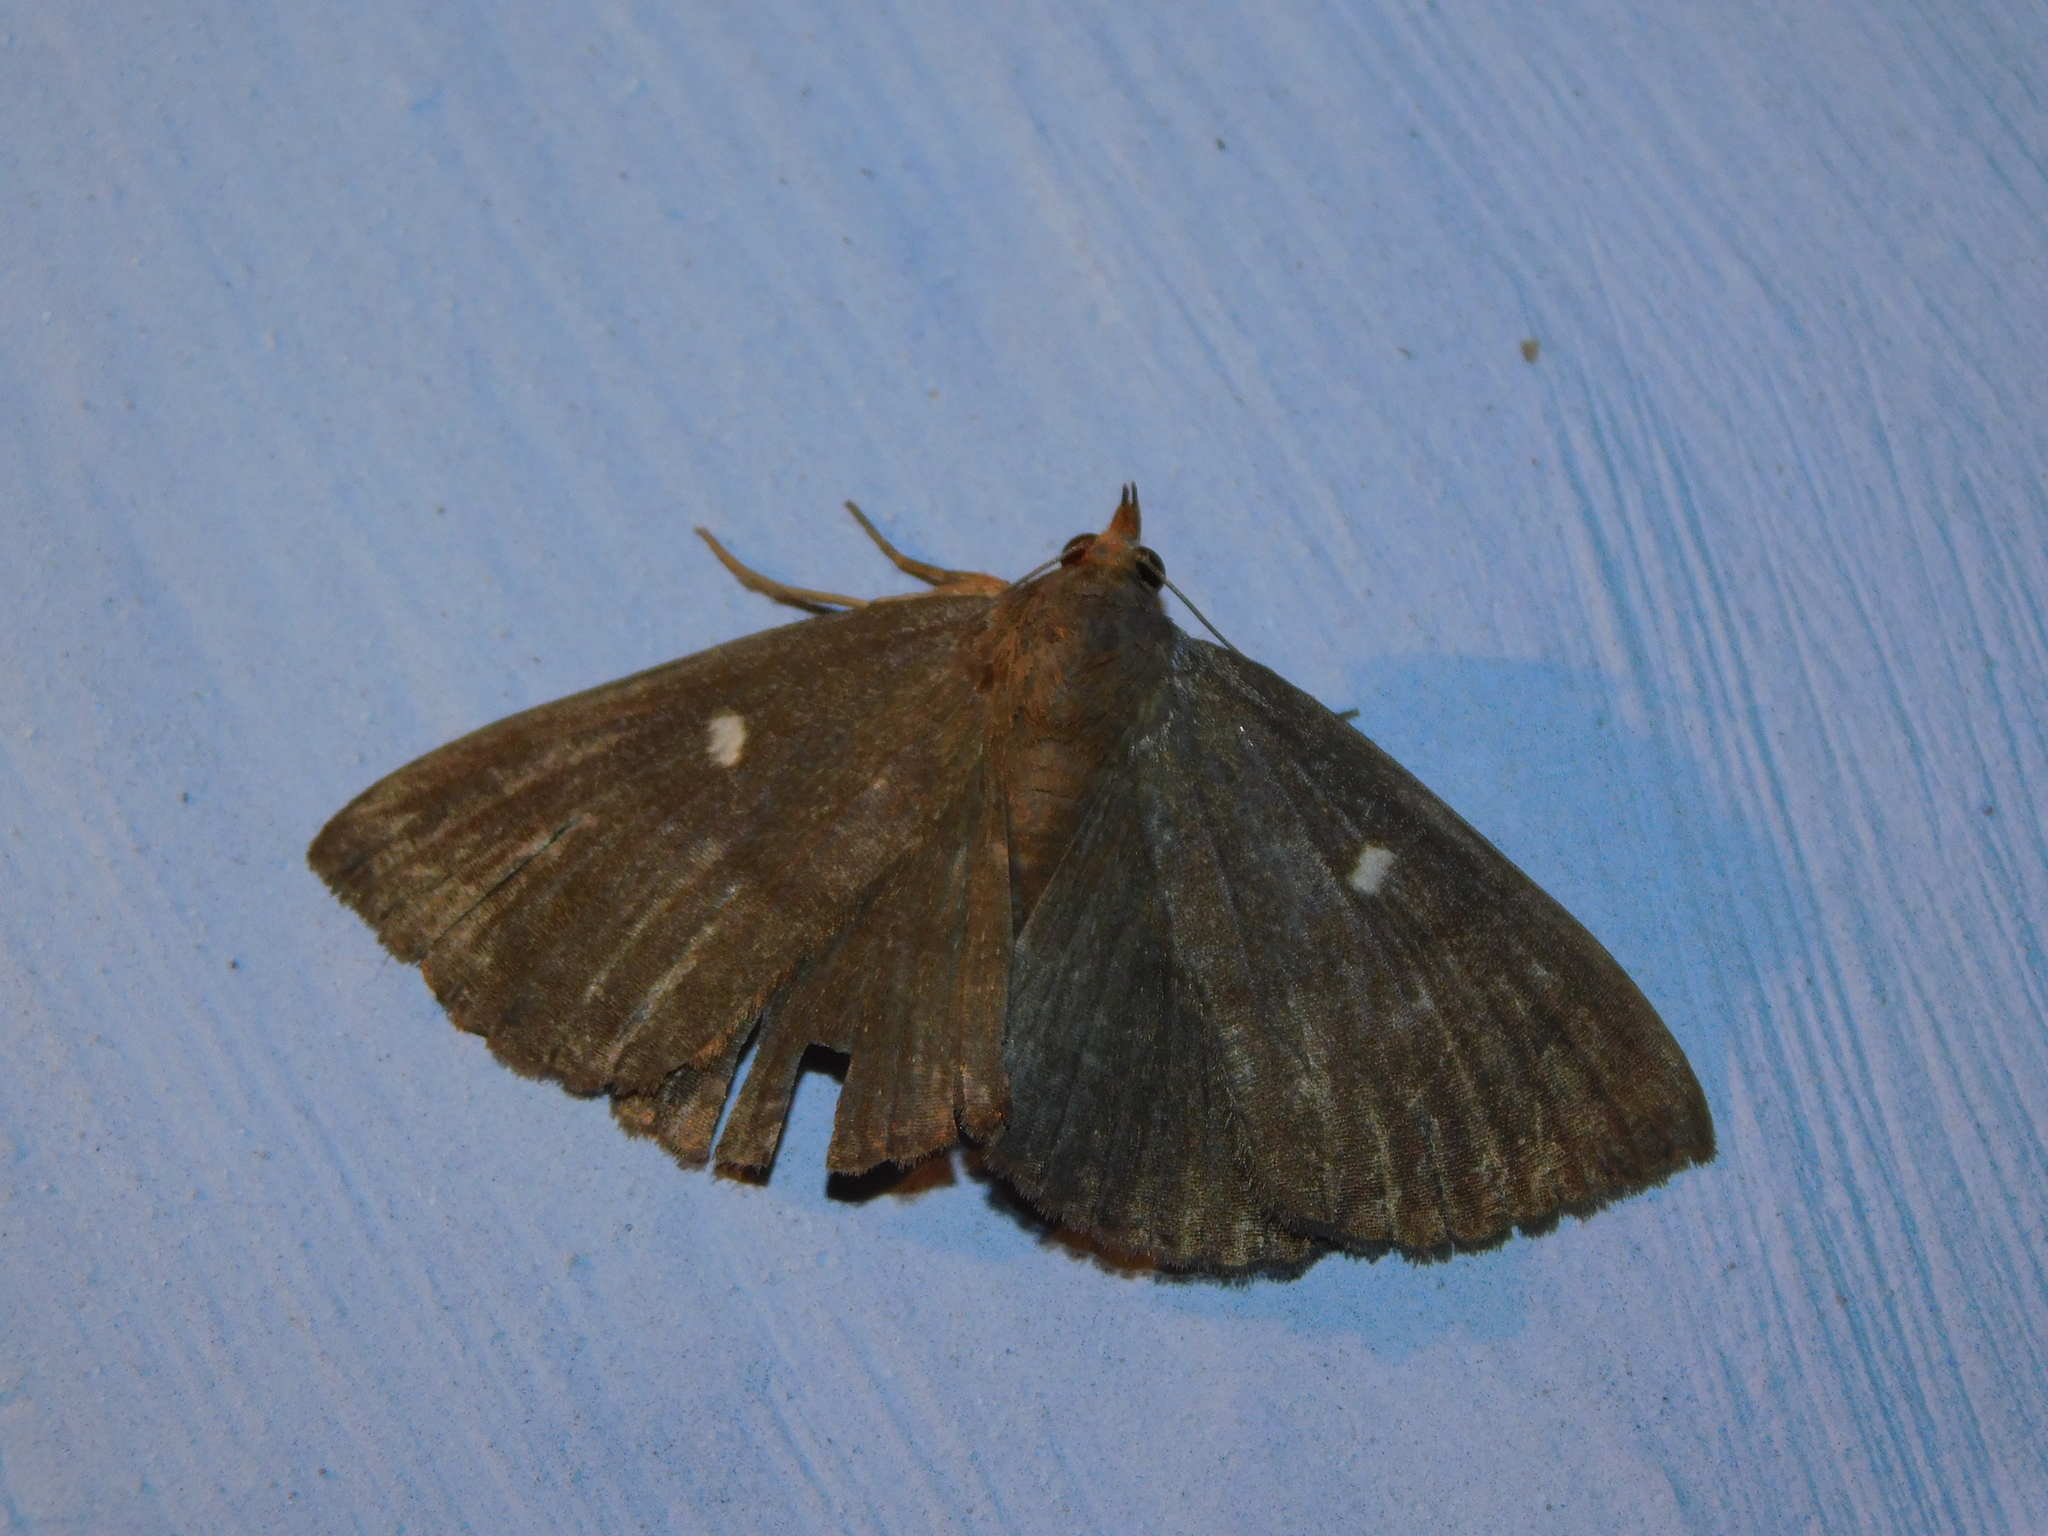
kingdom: Animalia
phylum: Arthropoda
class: Insecta
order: Lepidoptera
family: Erebidae
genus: Calesia
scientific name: Calesia fuscicorpus
